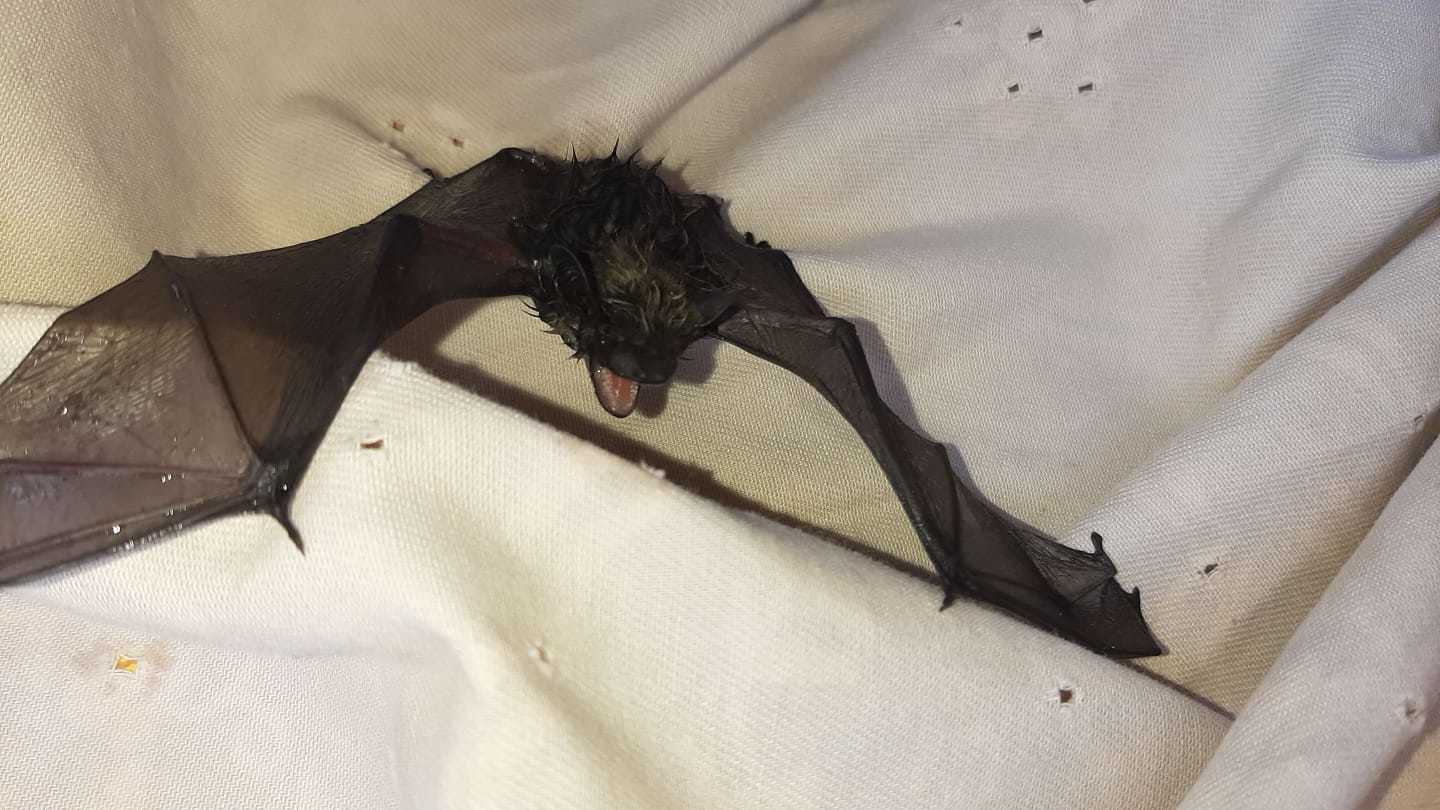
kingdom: Animalia
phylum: Chordata
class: Mammalia
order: Chiroptera
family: Vespertilionidae
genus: Hypsugo
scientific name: Hypsugo savii
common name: Savi's pipistrelle
